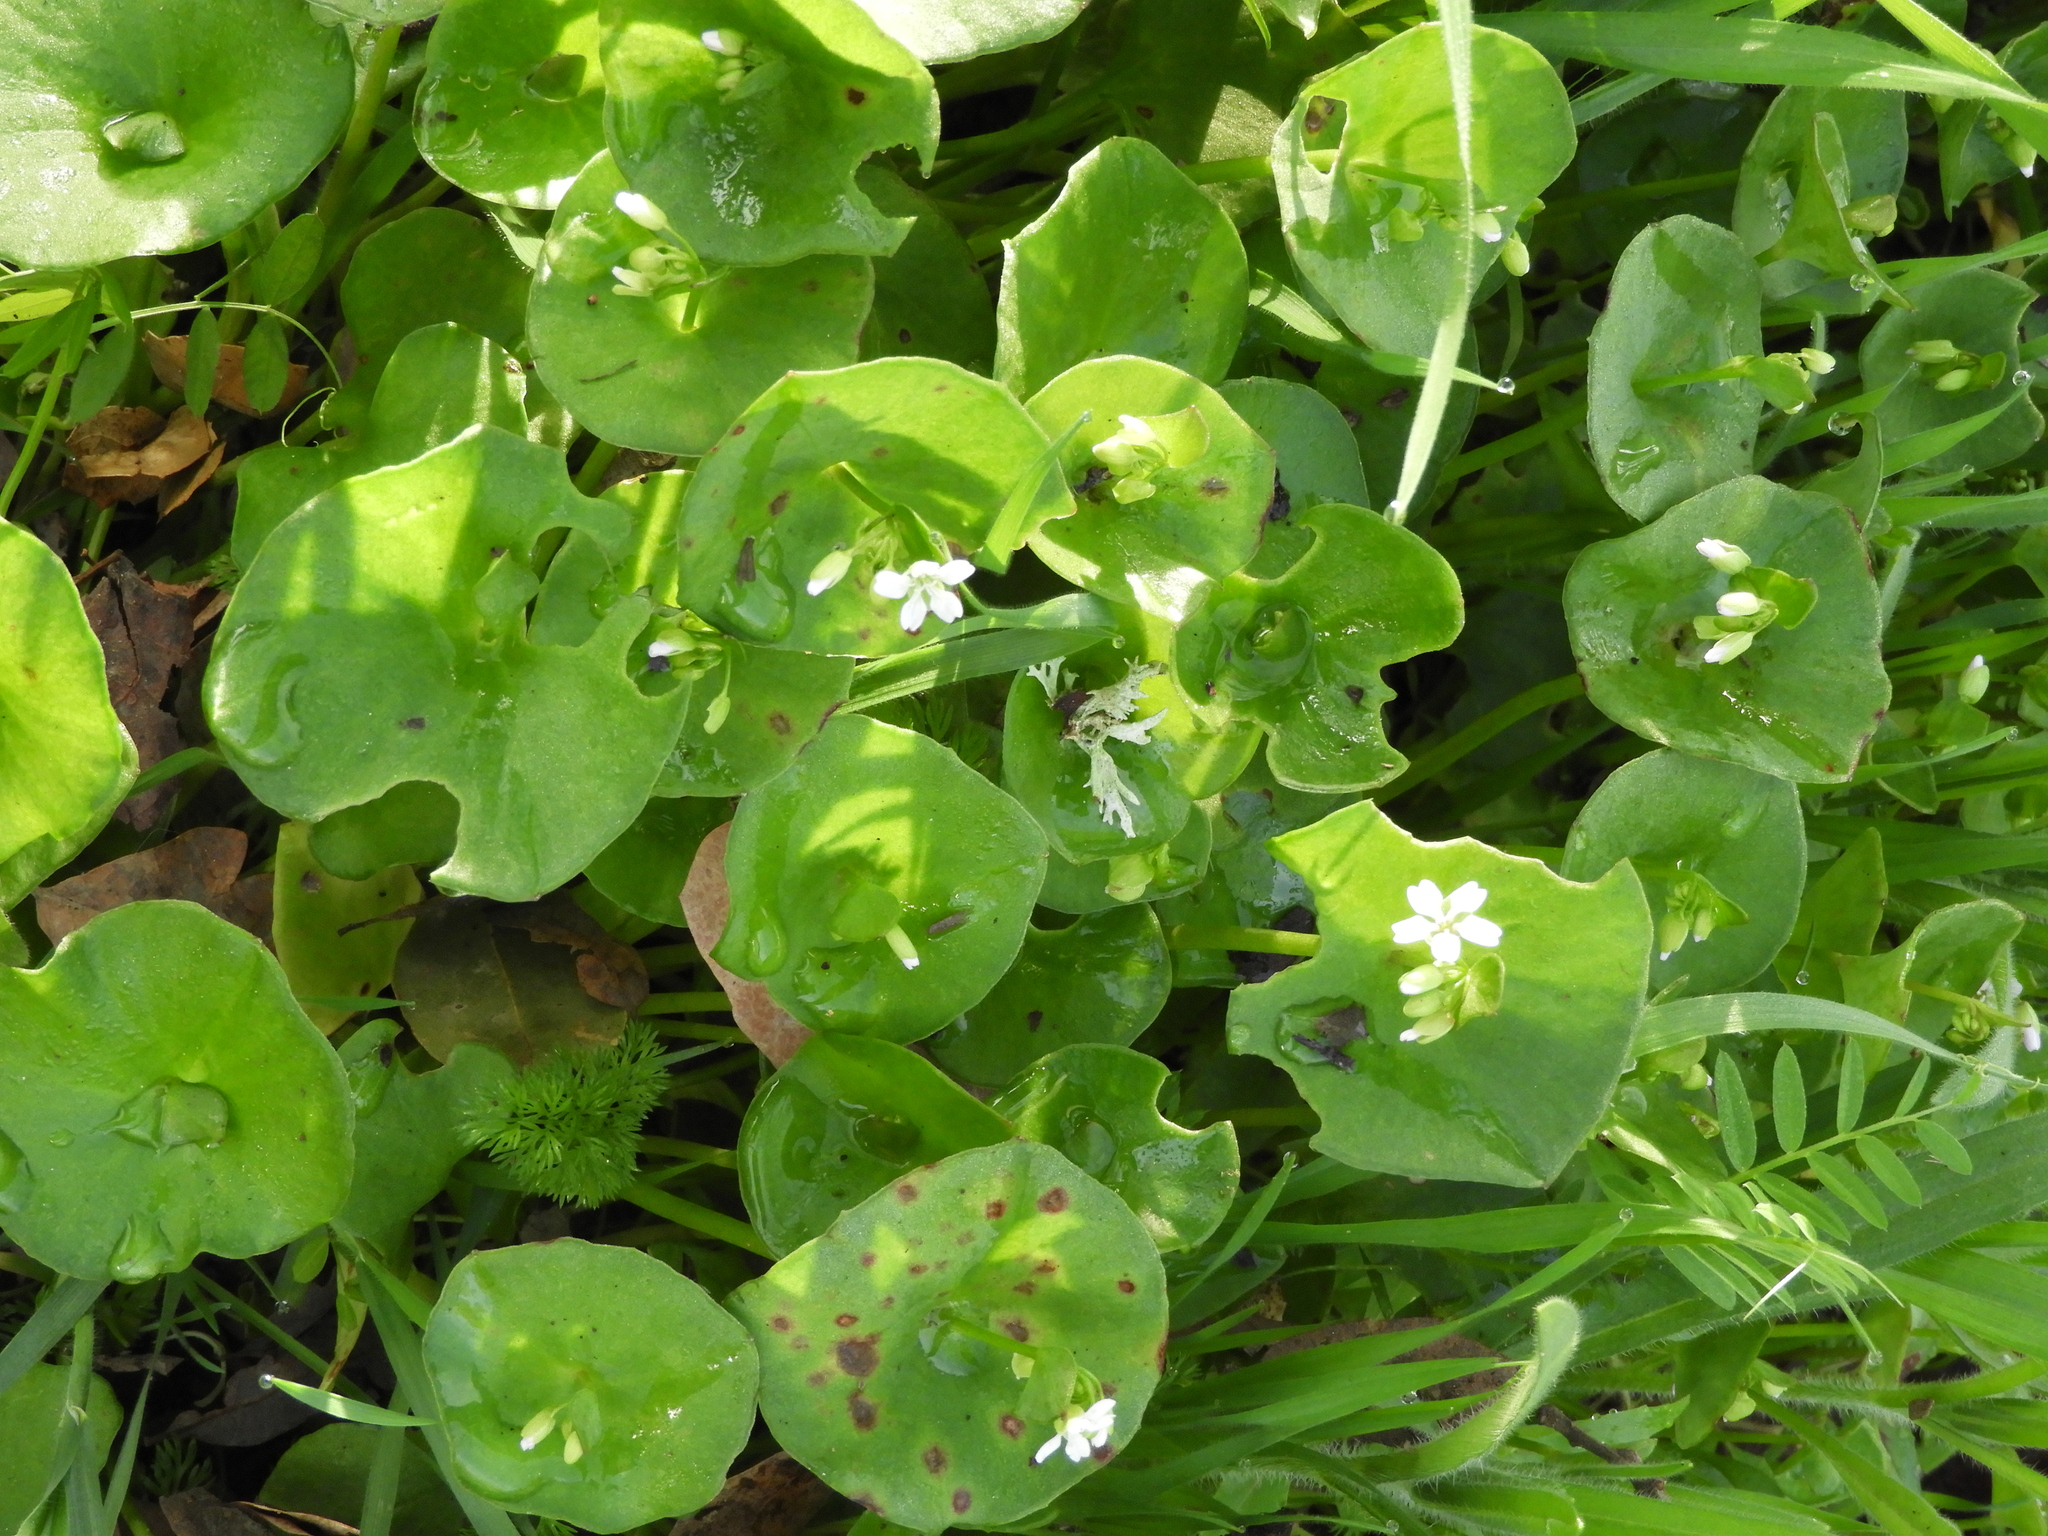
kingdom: Plantae
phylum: Tracheophyta
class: Magnoliopsida
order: Caryophyllales
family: Montiaceae
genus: Claytonia
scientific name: Claytonia perfoliata
